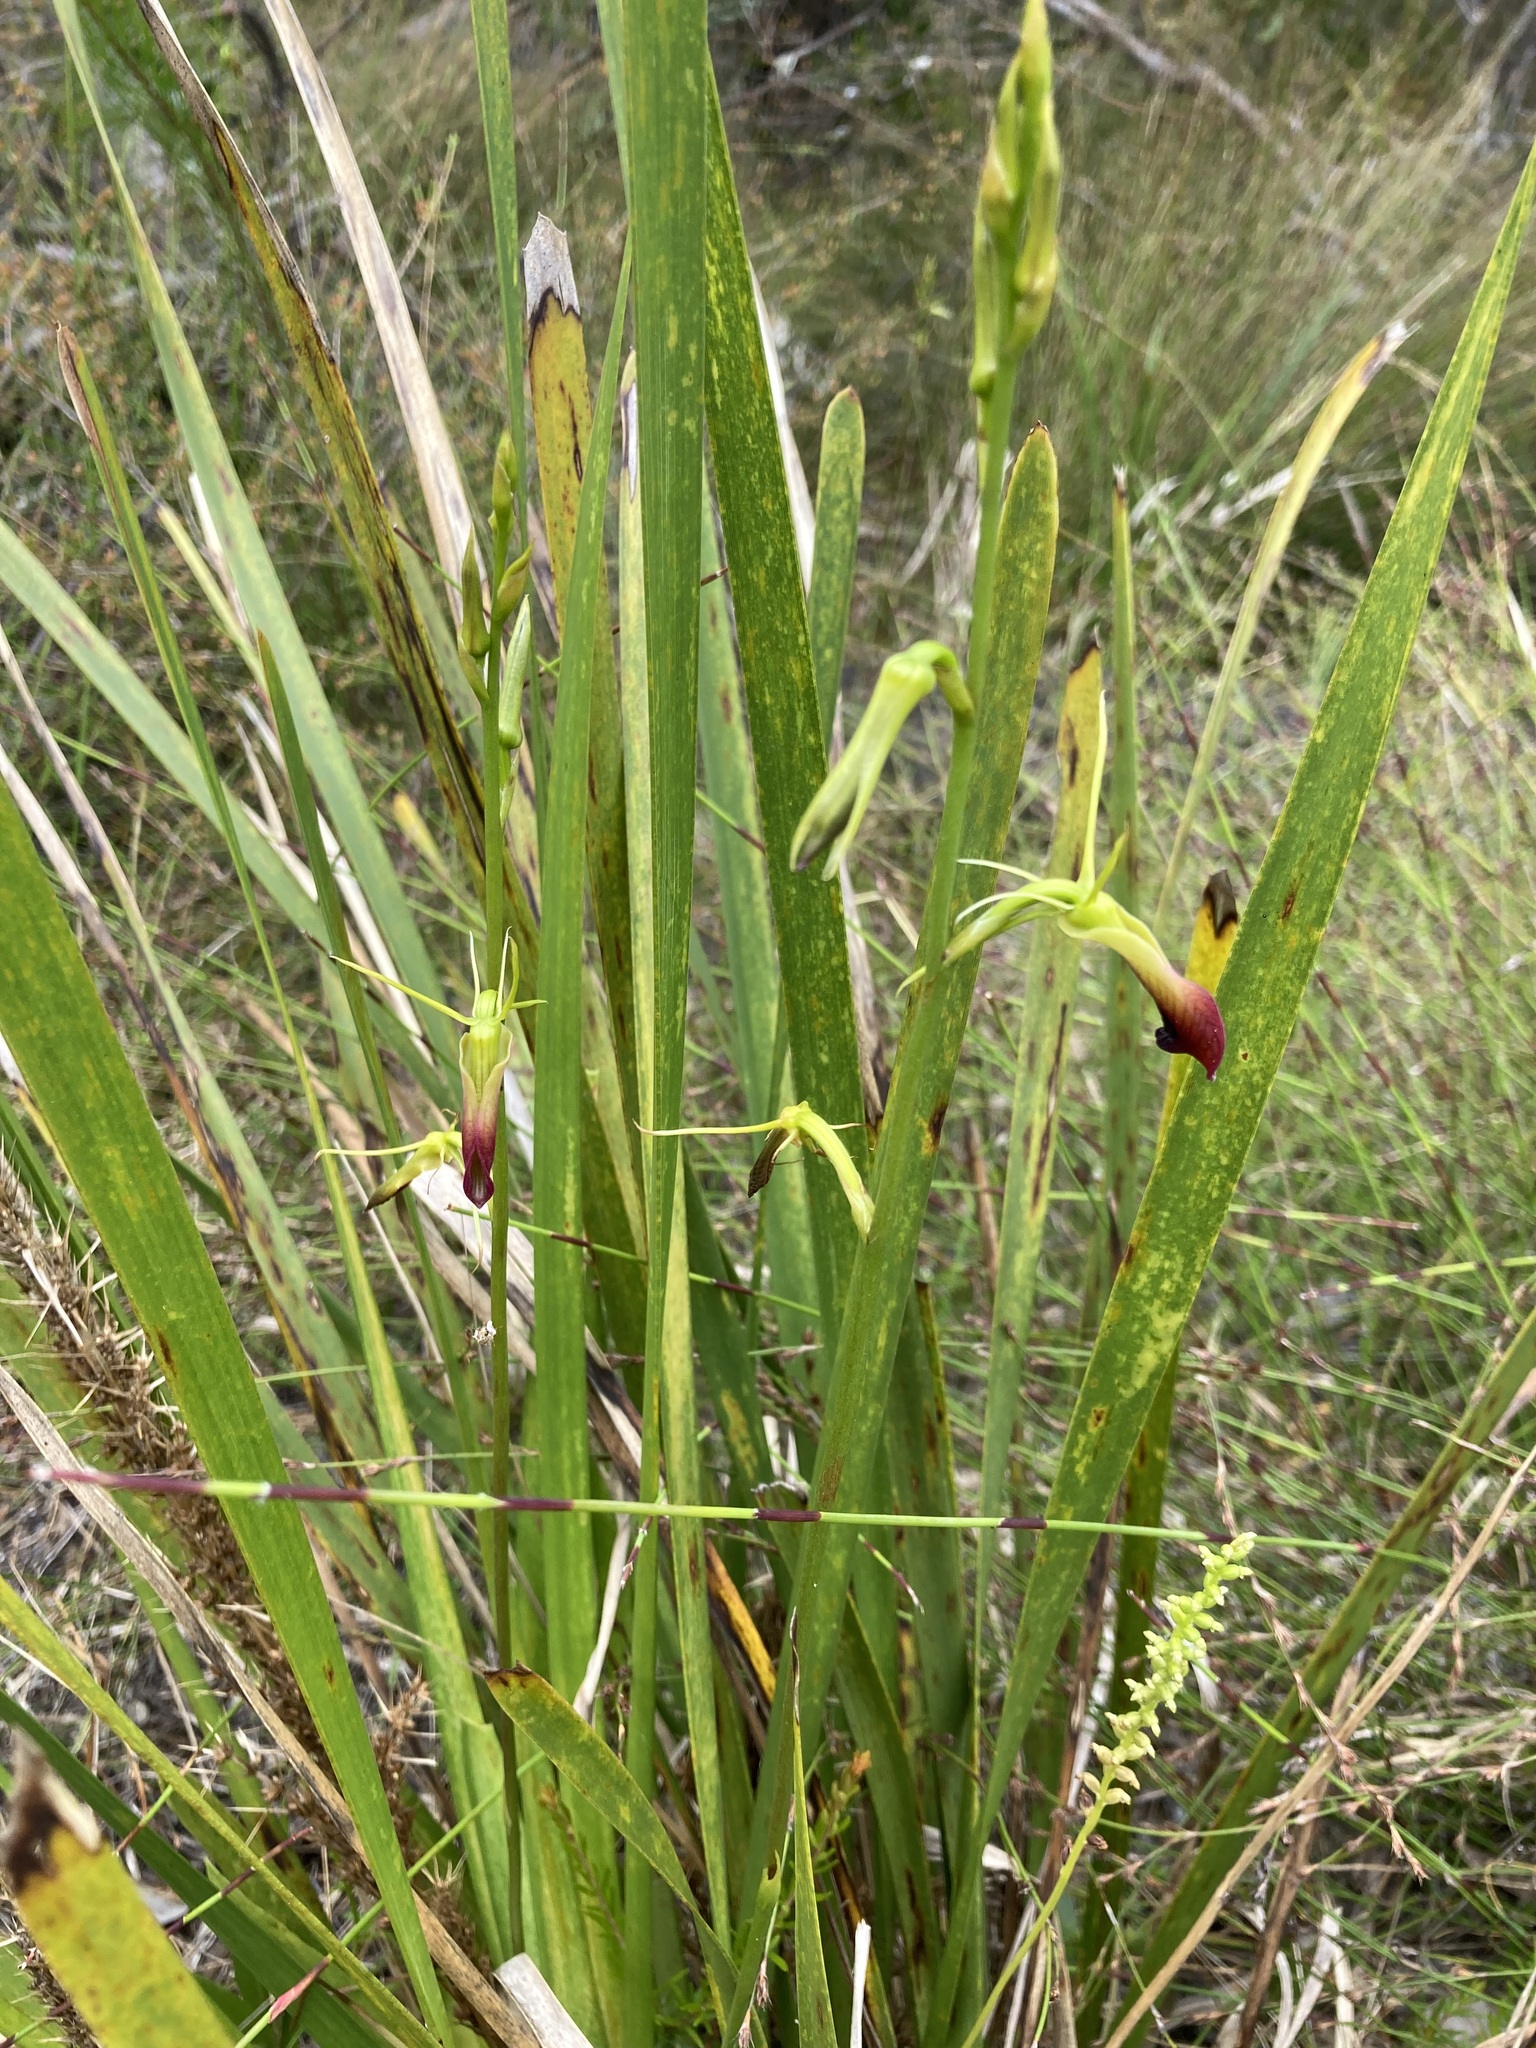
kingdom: Plantae
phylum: Tracheophyta
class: Liliopsida
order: Asparagales
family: Orchidaceae
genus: Cryptostylis
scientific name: Cryptostylis subulata
